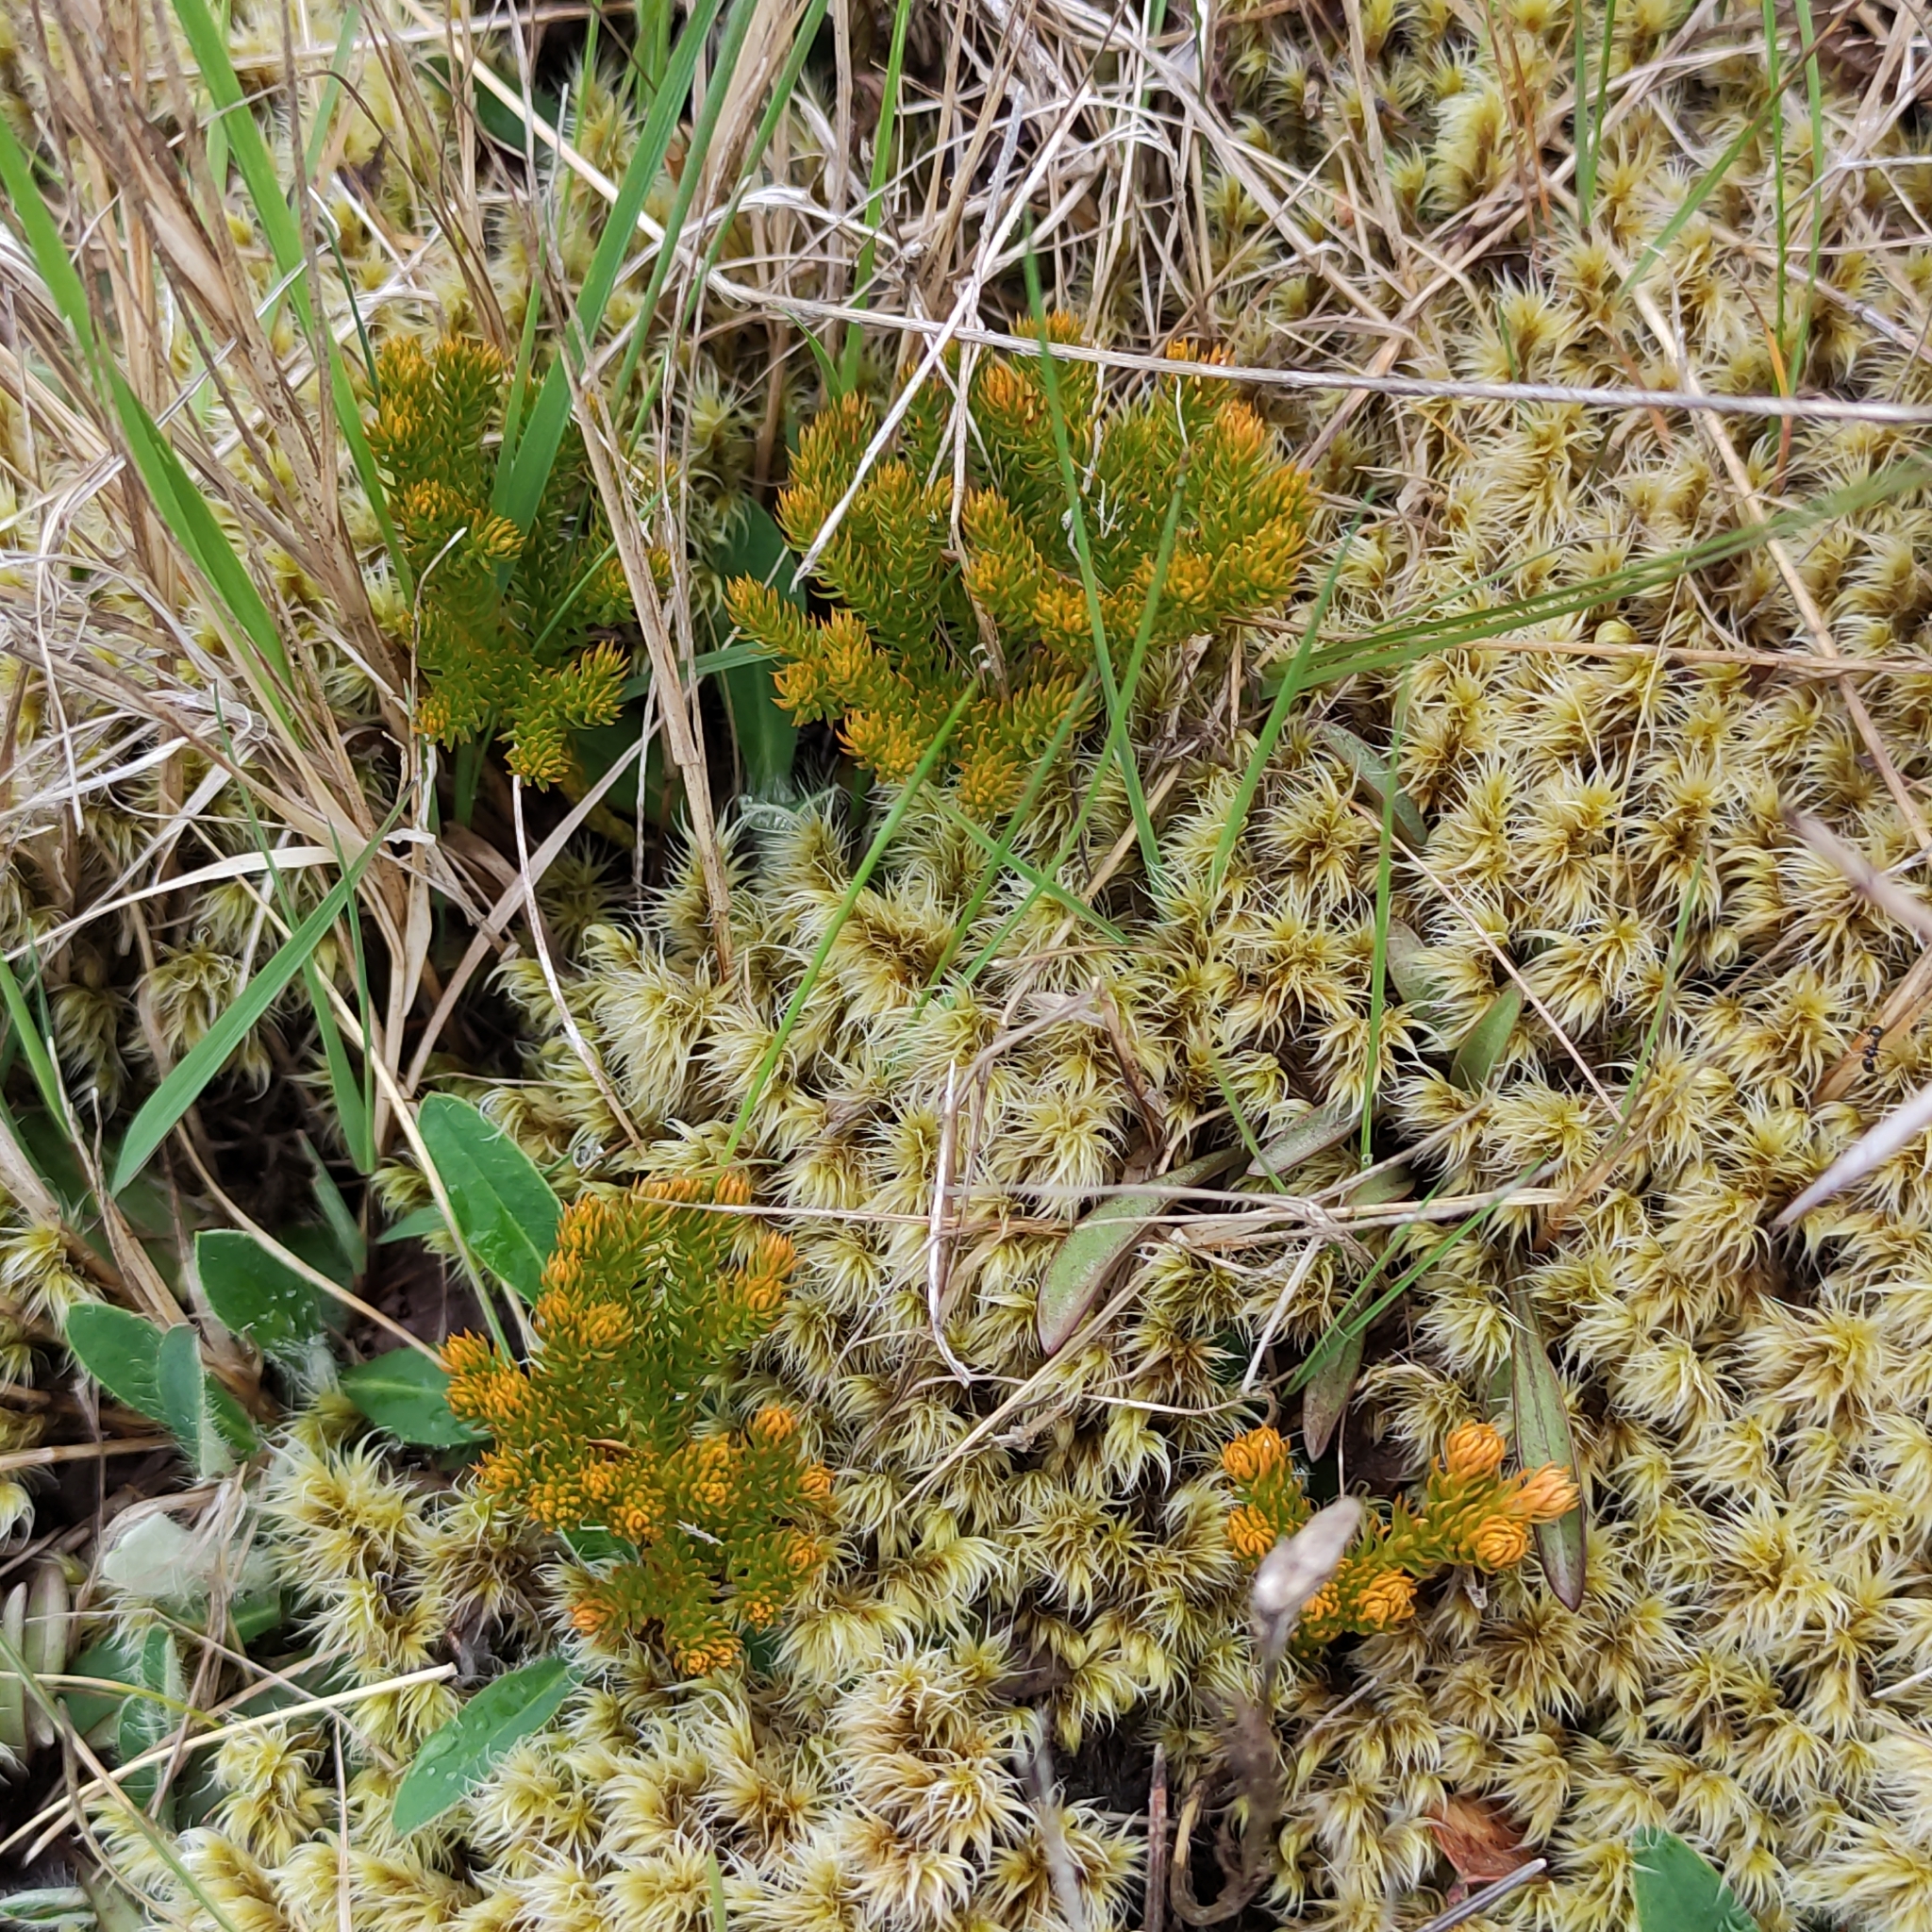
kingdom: Plantae
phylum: Tracheophyta
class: Lycopodiopsida
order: Lycopodiales
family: Lycopodiaceae
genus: Austrolycopodium
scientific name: Austrolycopodium fastigiatum
